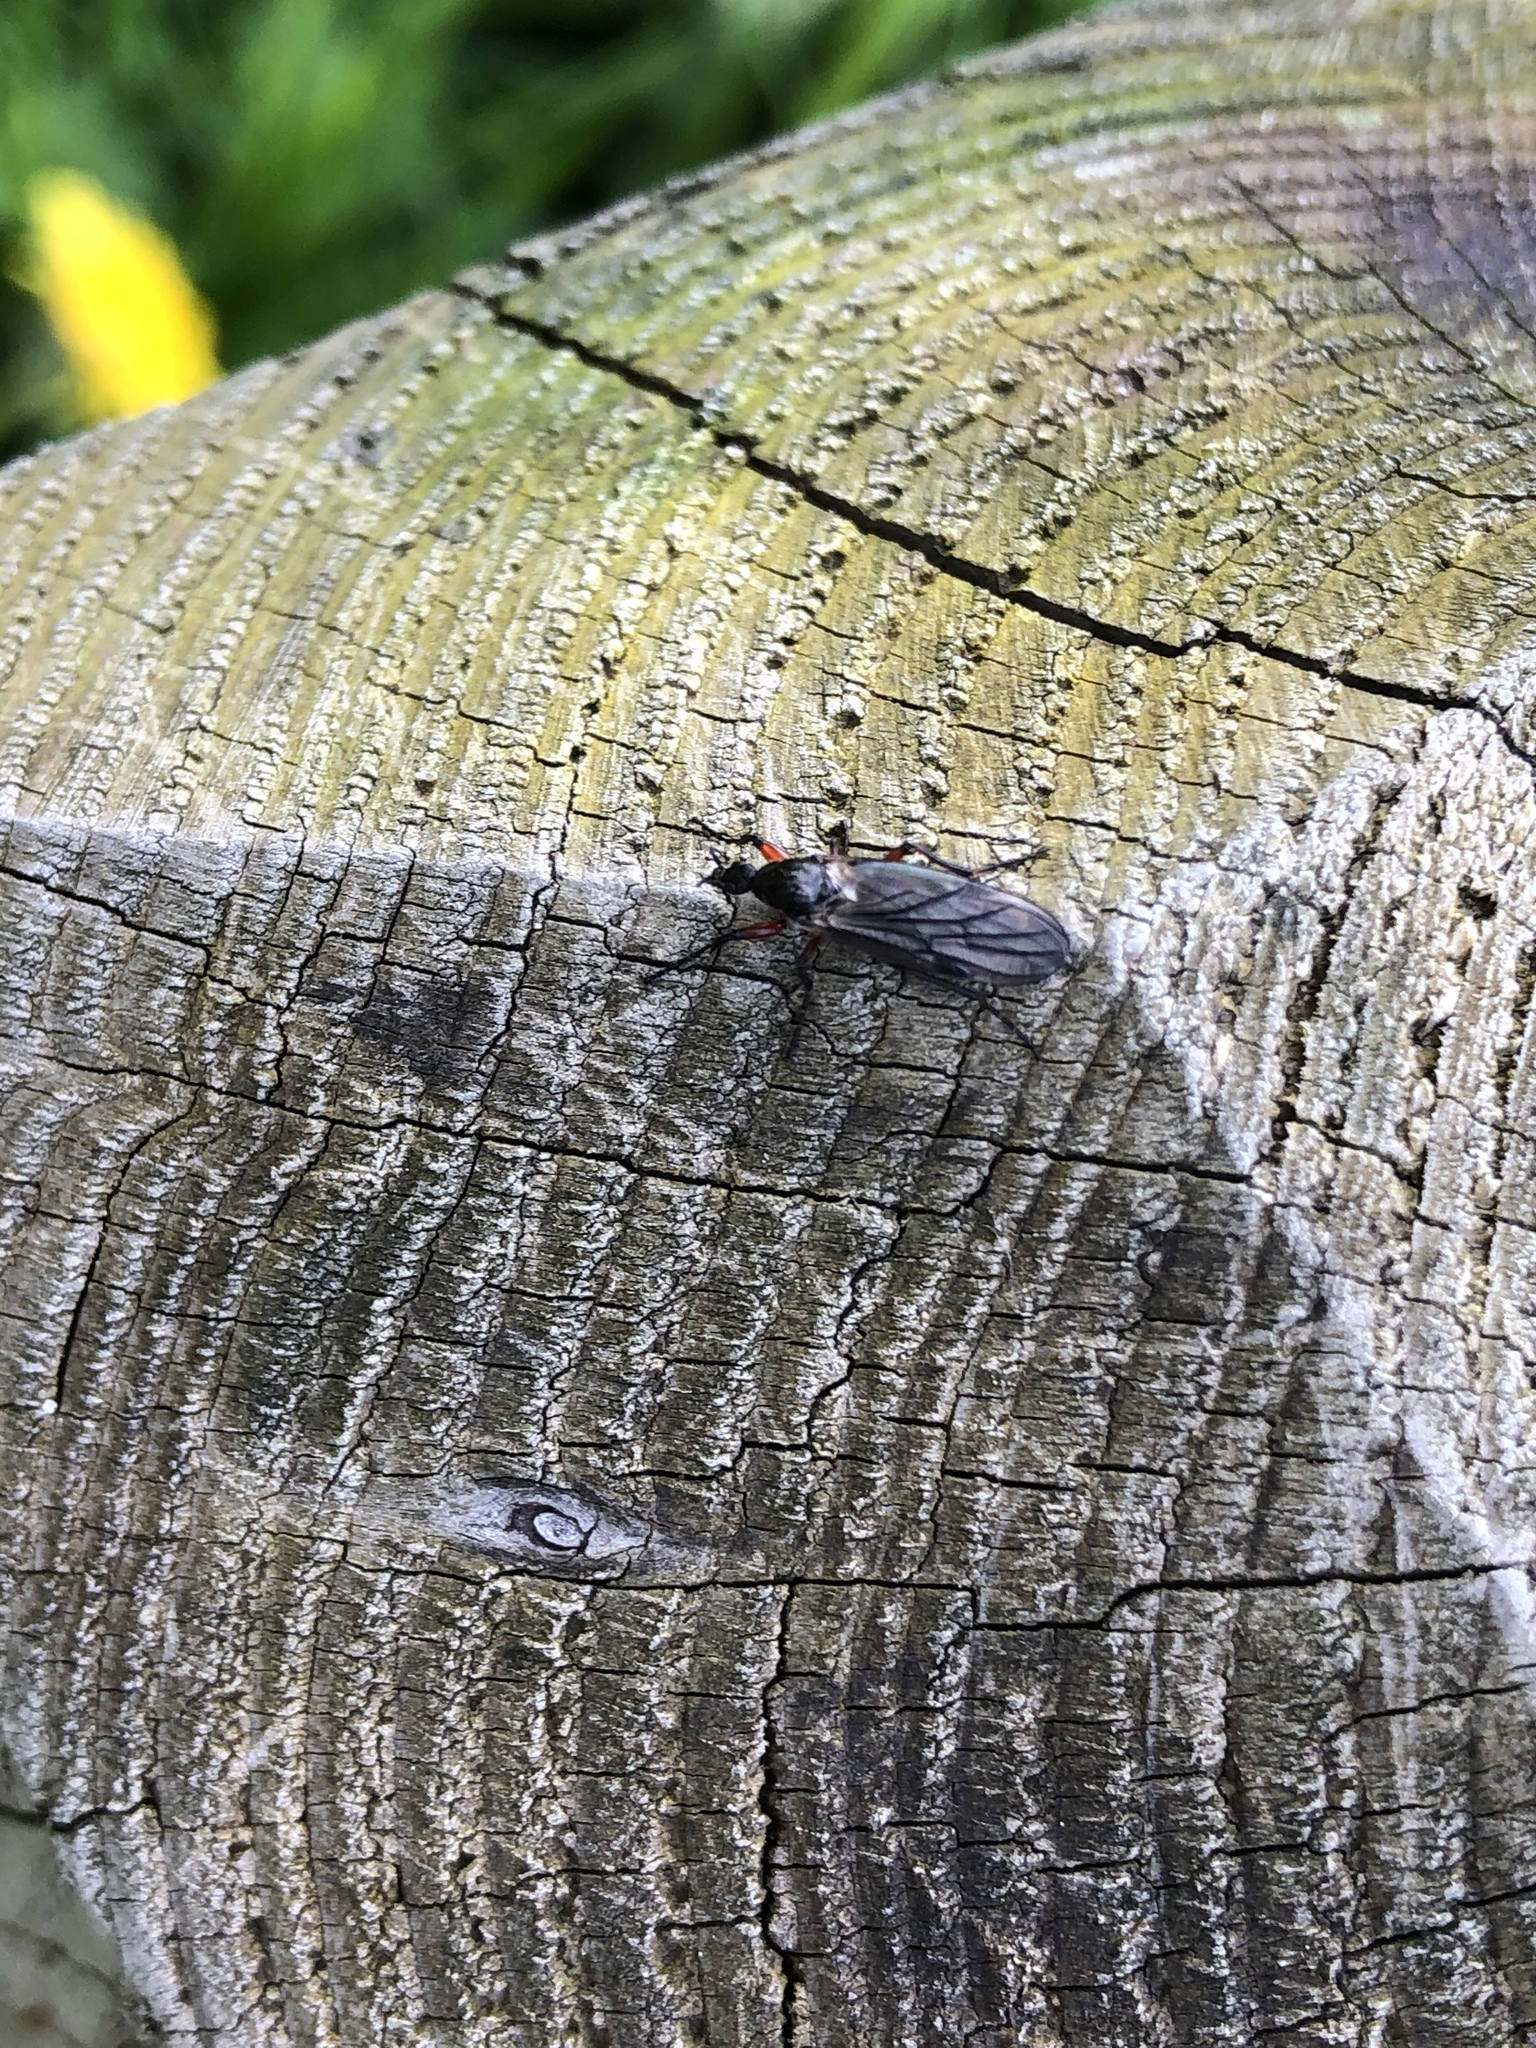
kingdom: Animalia
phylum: Arthropoda
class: Insecta
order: Diptera
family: Bibionidae
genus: Bibio
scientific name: Bibio
